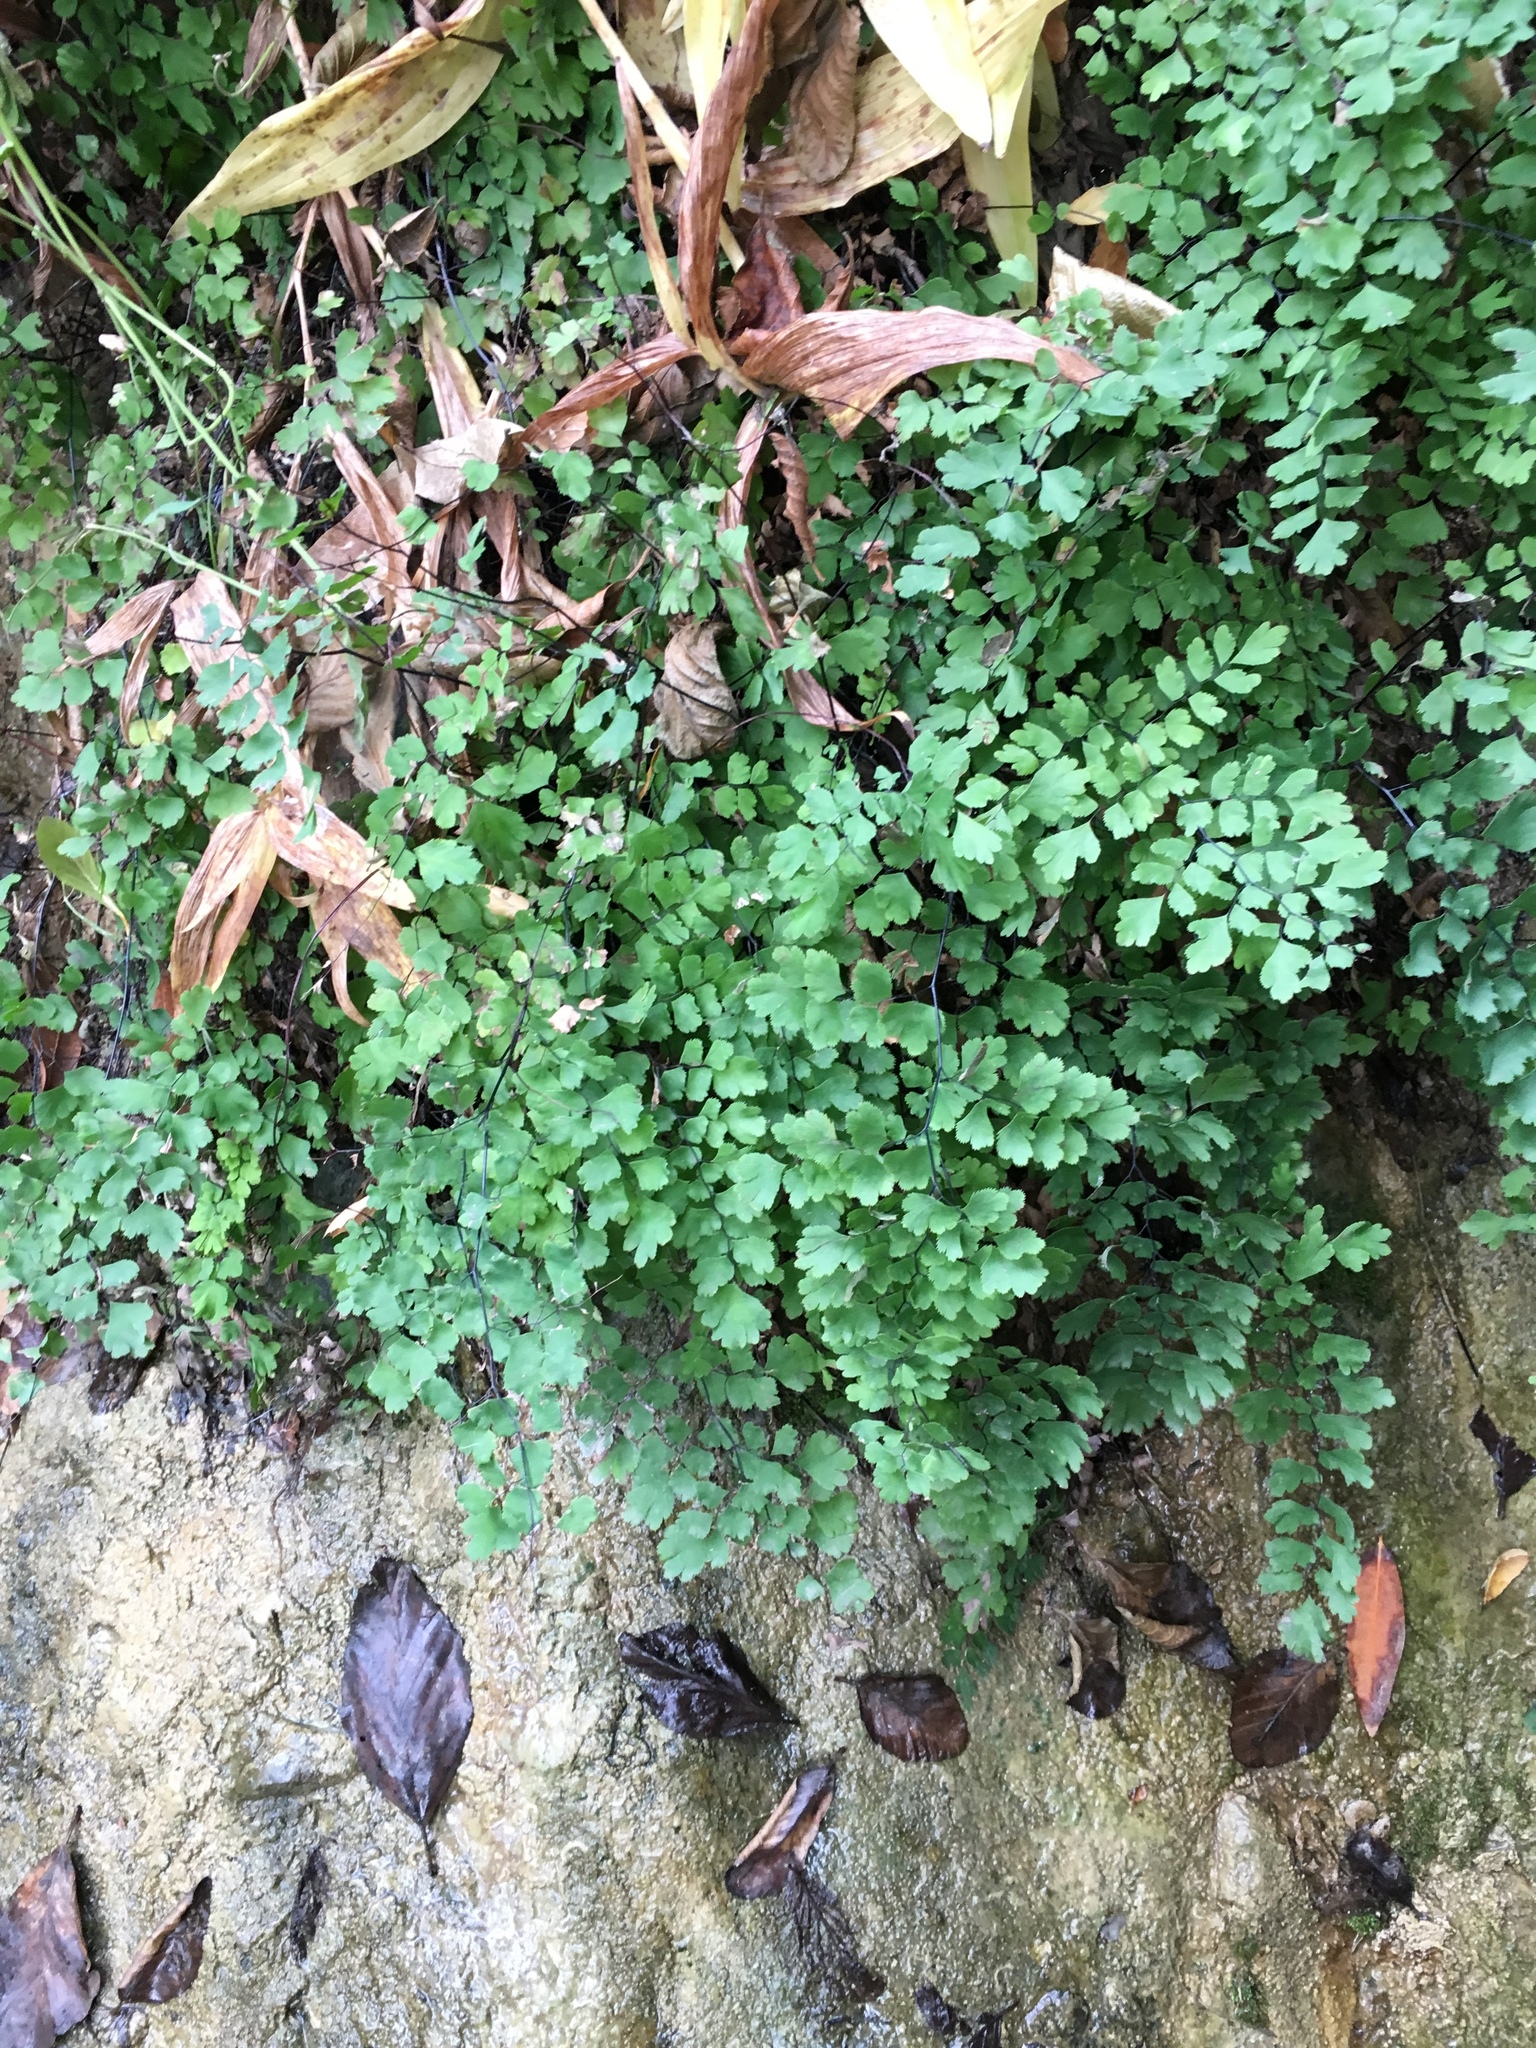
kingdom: Plantae
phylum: Tracheophyta
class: Polypodiopsida
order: Polypodiales
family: Pteridaceae
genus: Adiantum
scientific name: Adiantum capillus-veneris
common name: Maidenhair fern
